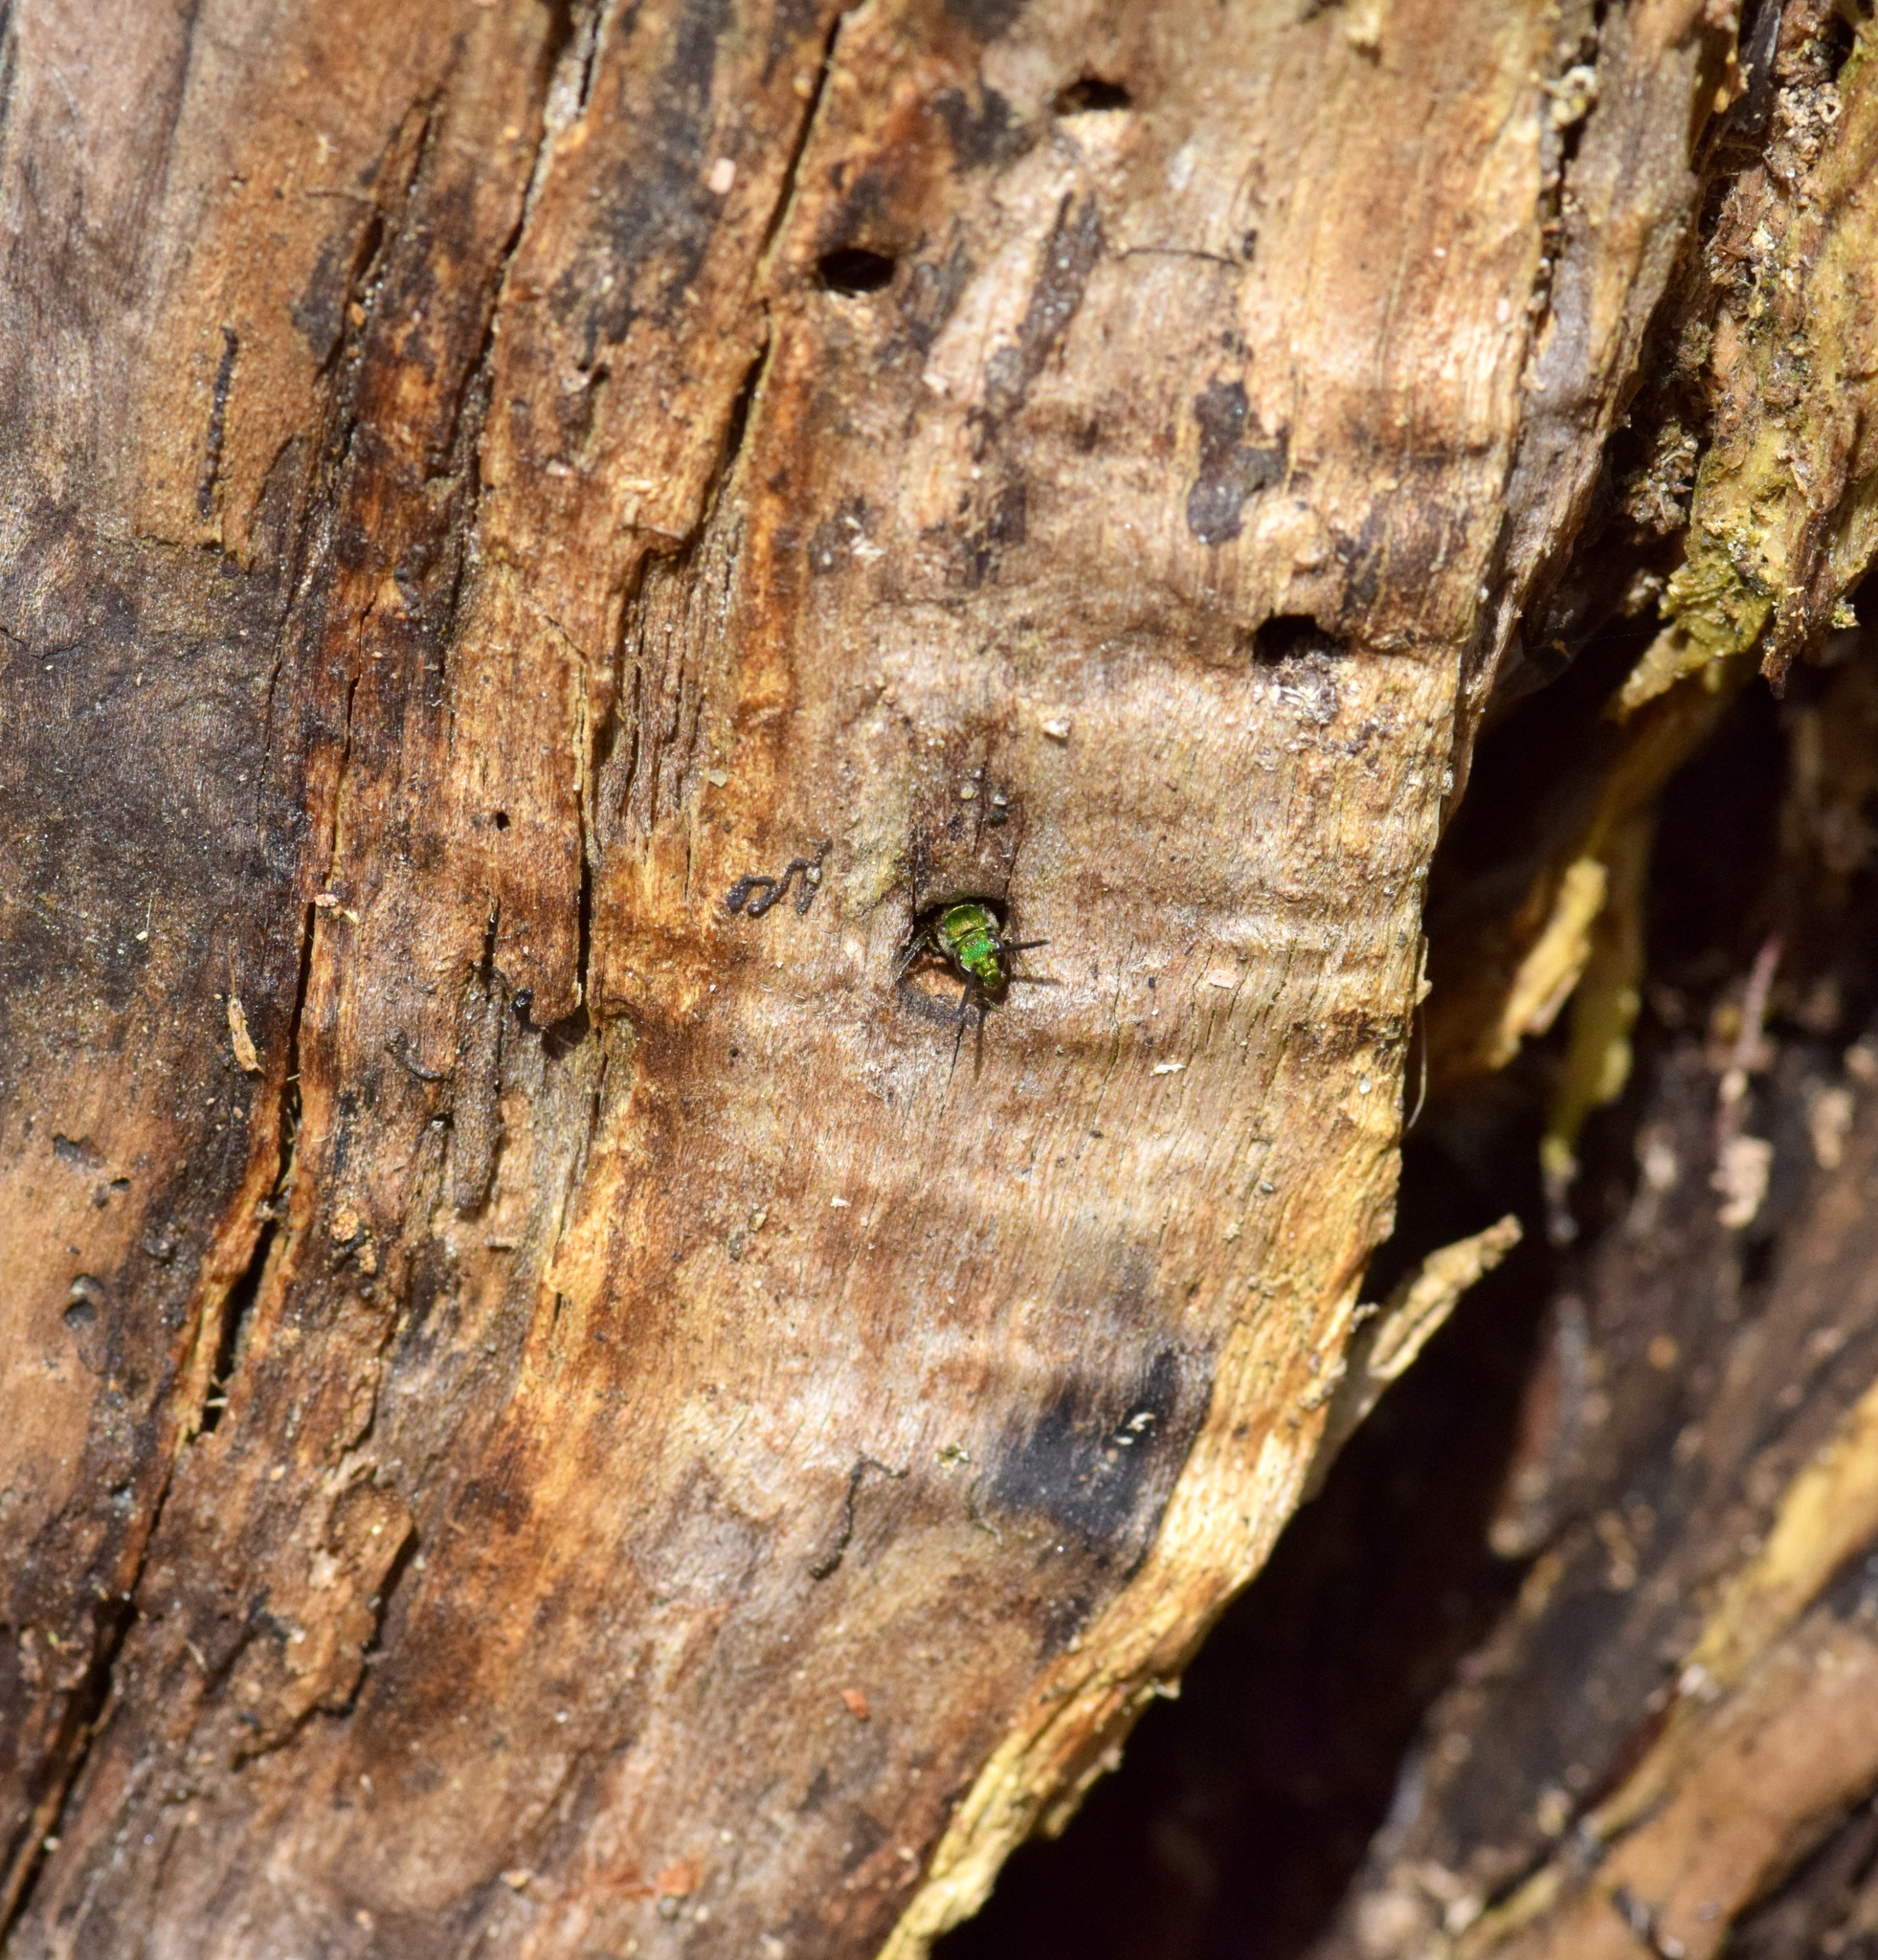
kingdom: Animalia
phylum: Arthropoda
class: Insecta
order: Hymenoptera
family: Halictidae
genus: Augochlora
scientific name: Augochlora pura
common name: Pure green sweat bee
